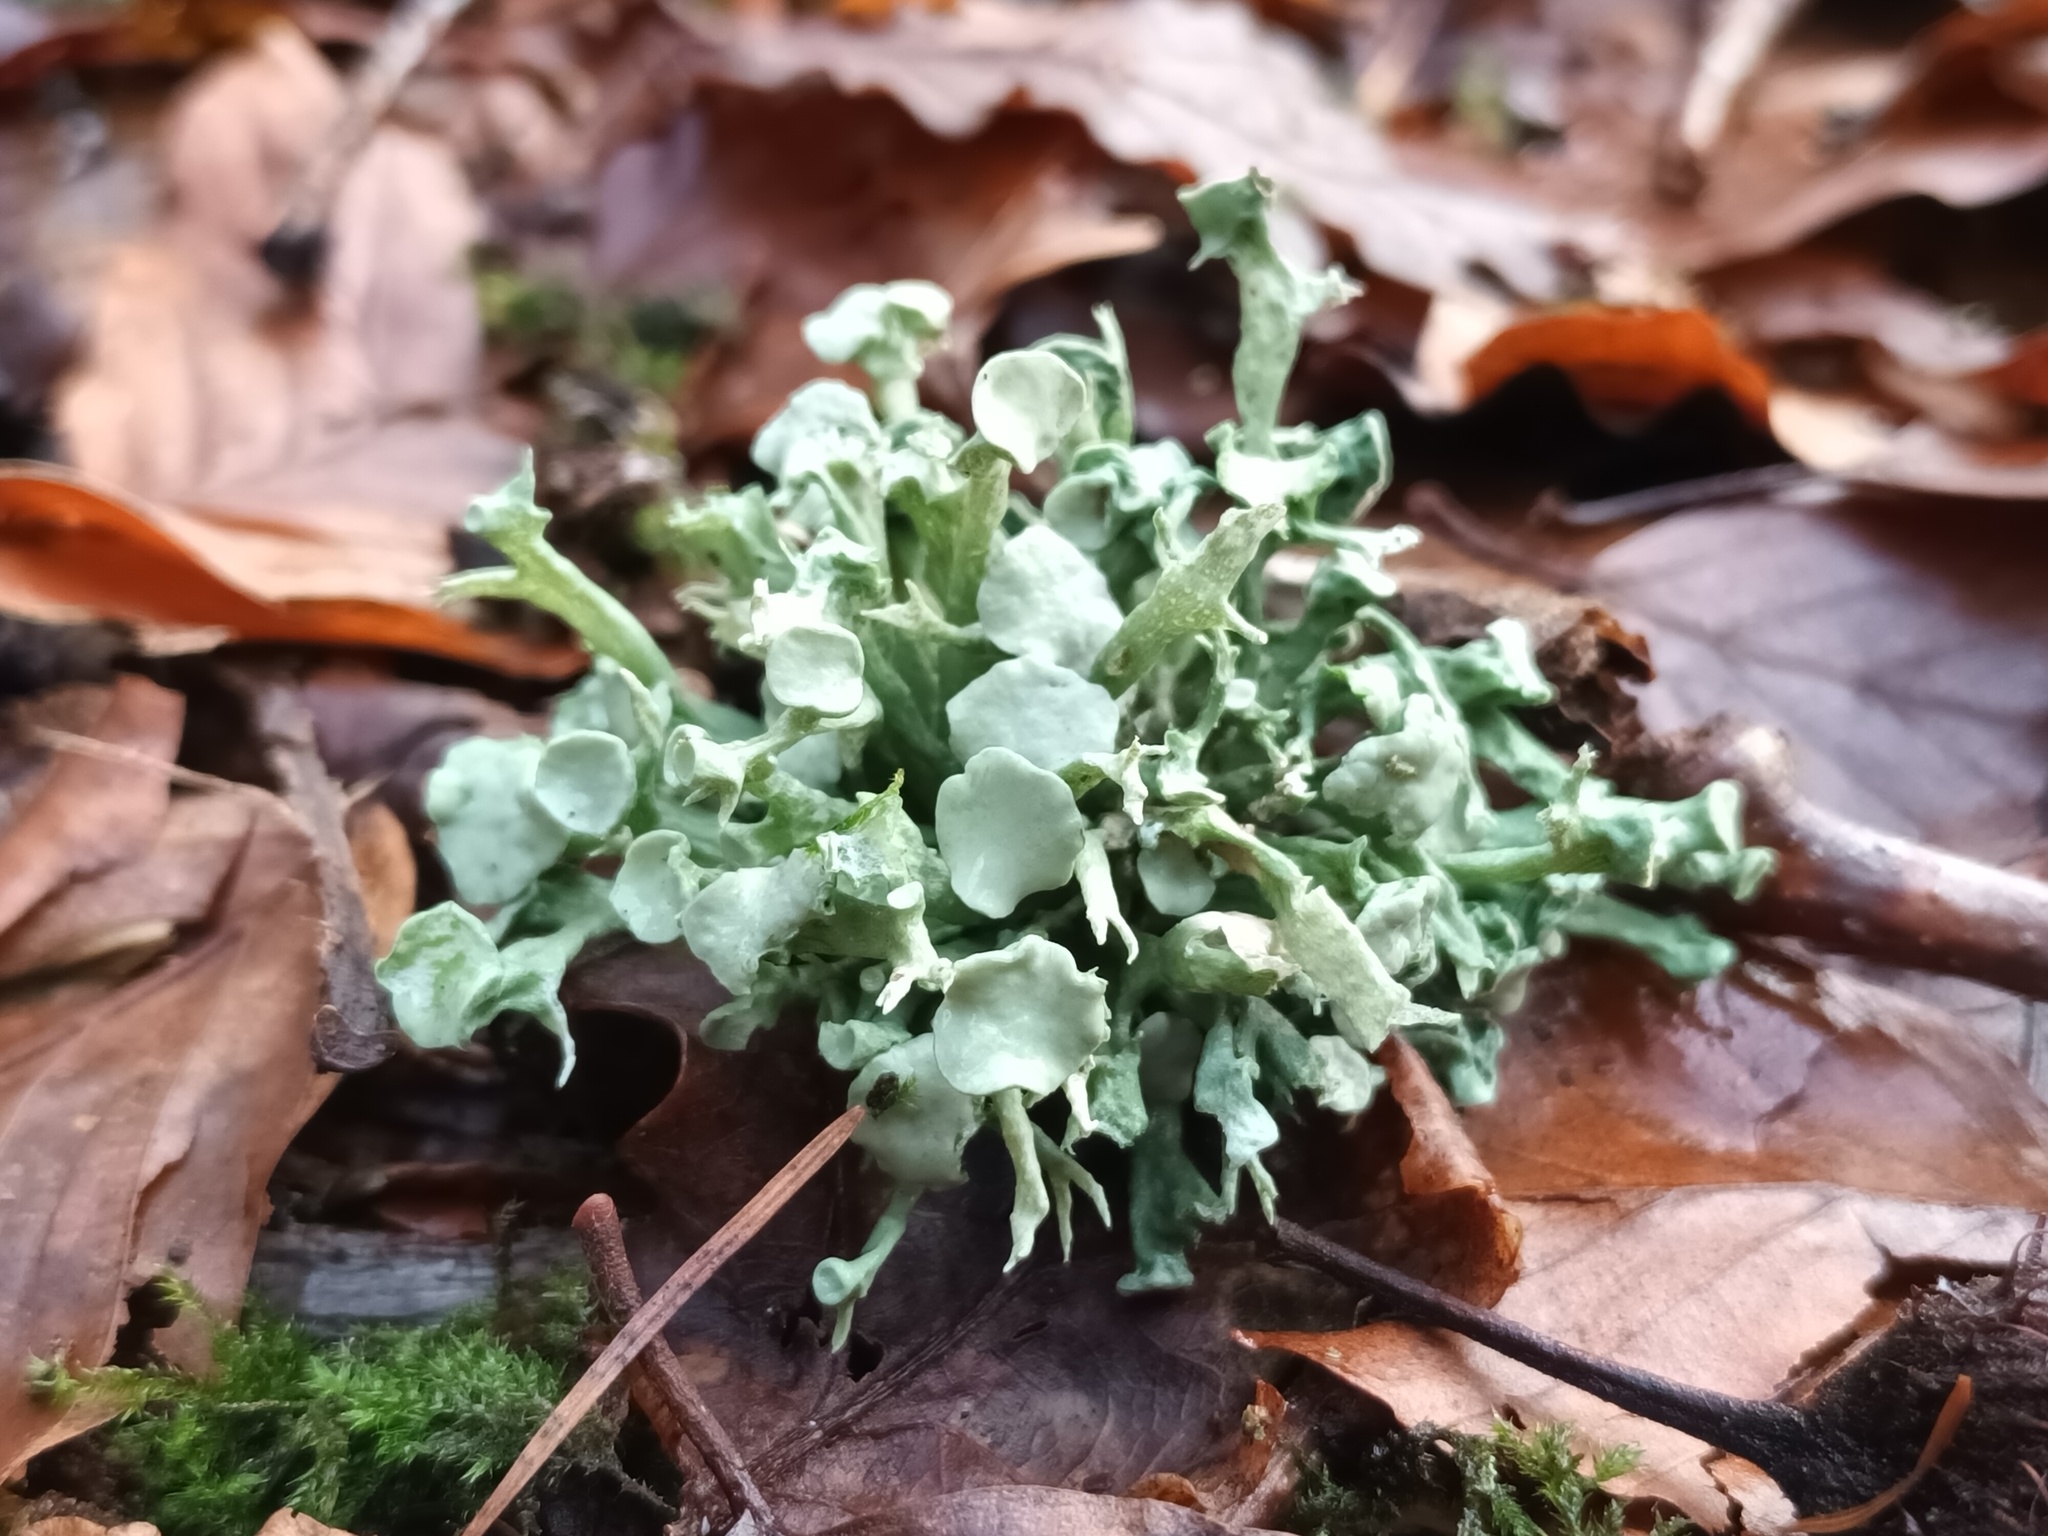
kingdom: Fungi
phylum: Ascomycota
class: Lecanoromycetes
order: Lecanorales
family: Ramalinaceae
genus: Ramalina
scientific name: Ramalina fastigiata
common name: Dotted ribbon lichen
